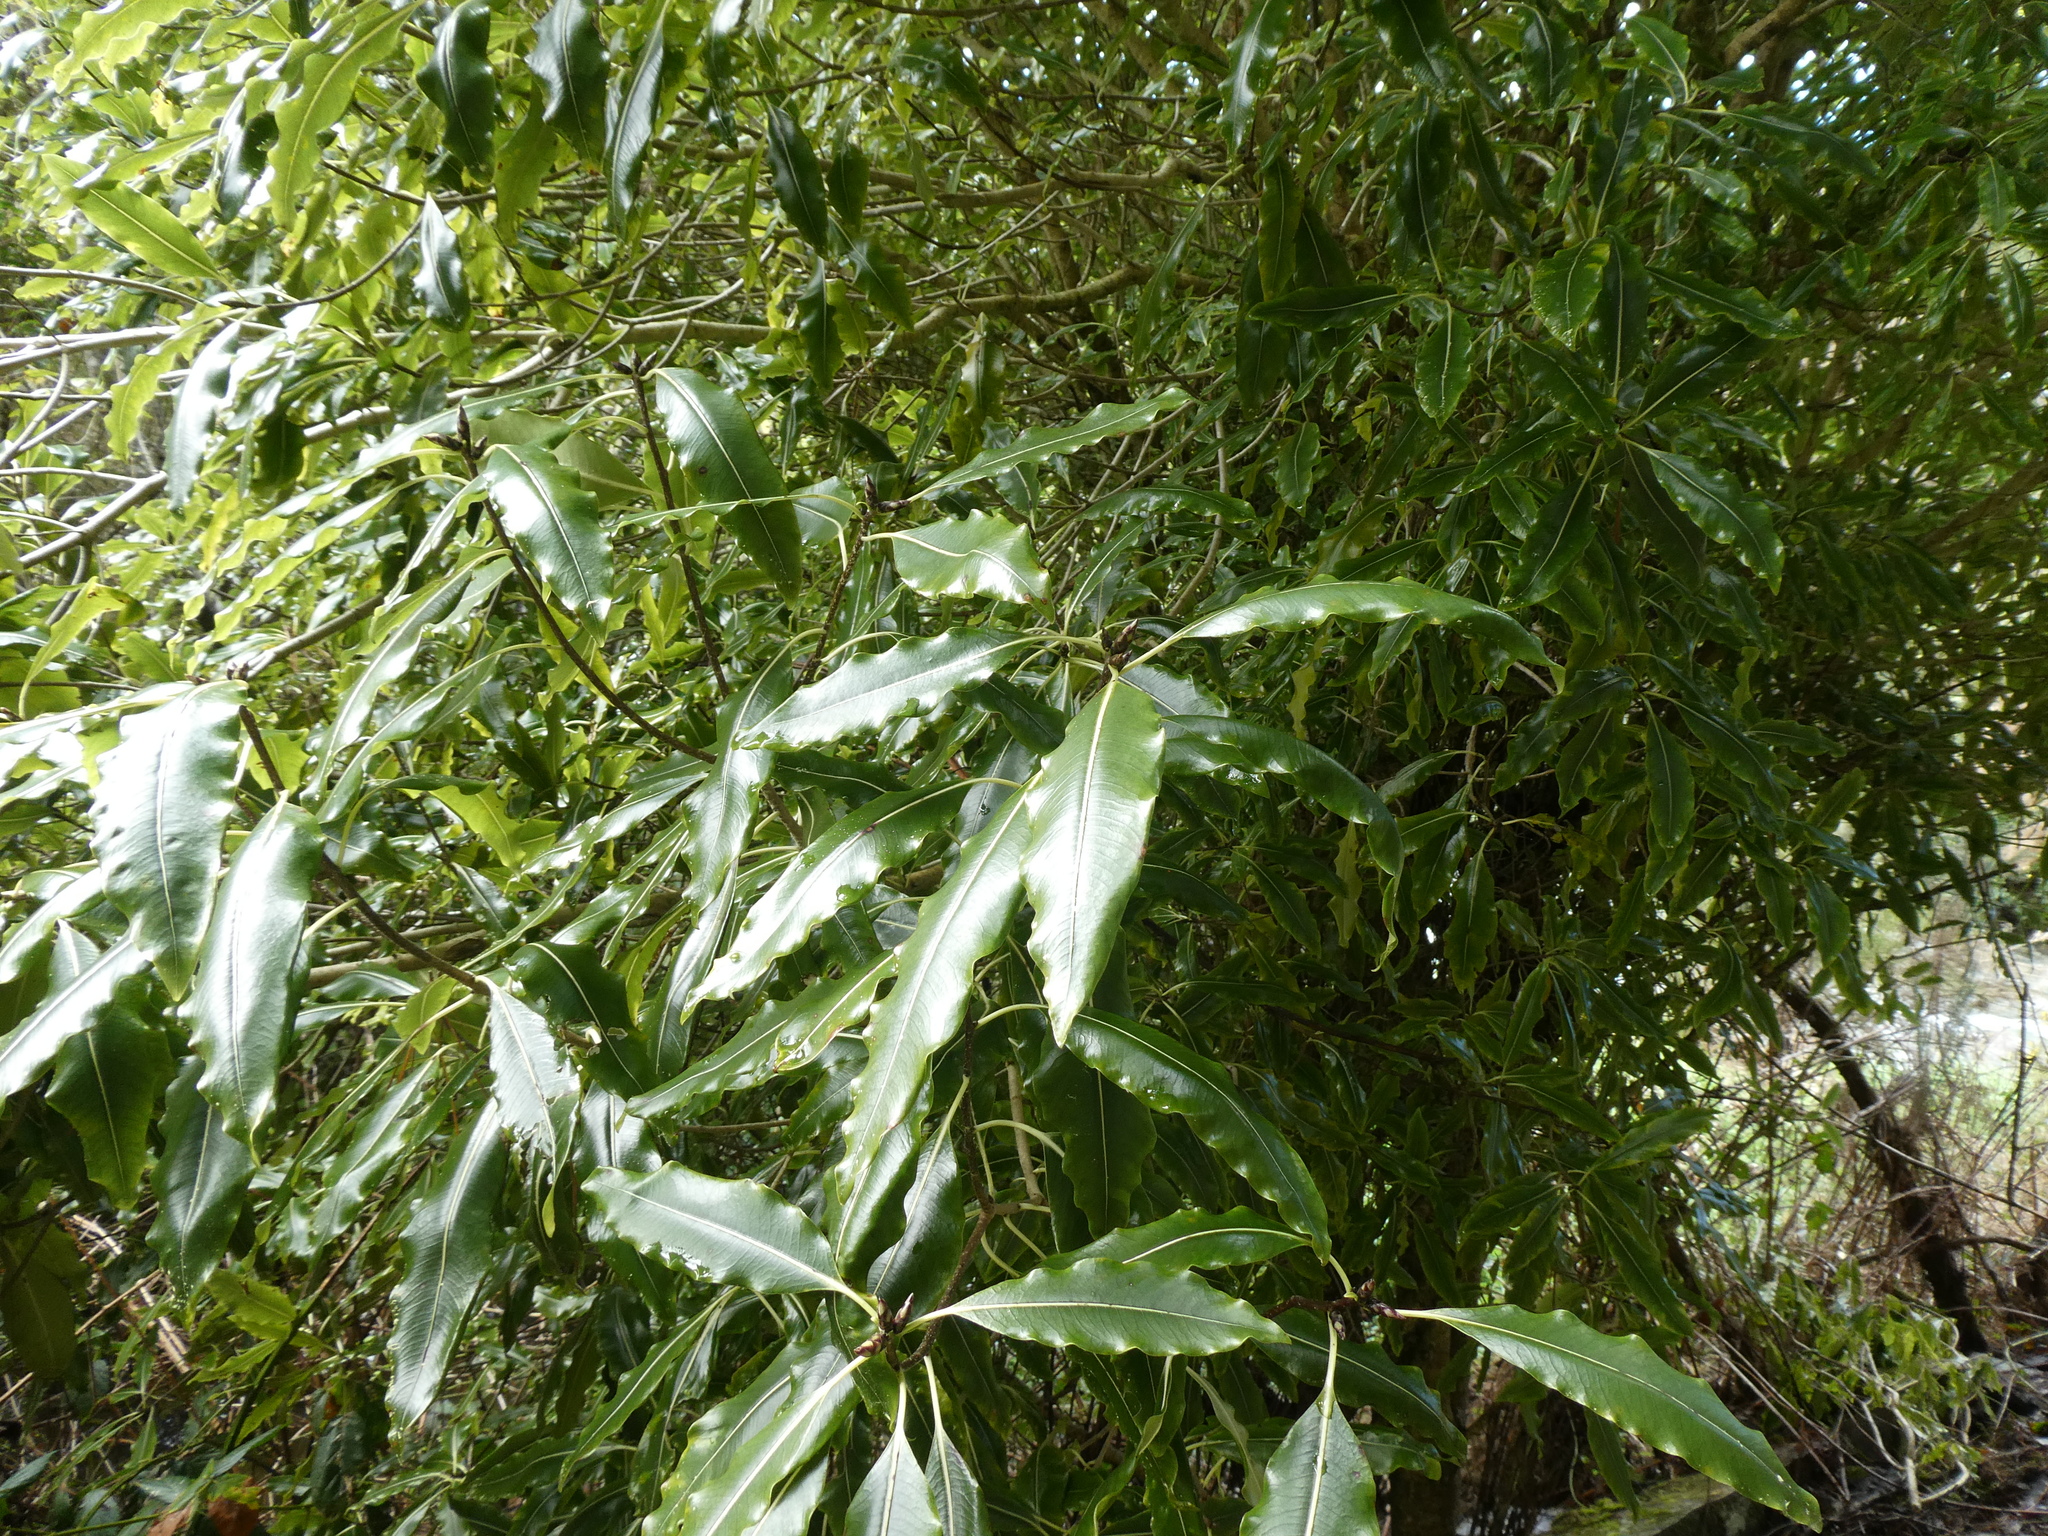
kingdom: Plantae
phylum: Tracheophyta
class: Magnoliopsida
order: Apiales
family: Pittosporaceae
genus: Pittosporum
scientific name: Pittosporum eugenioides
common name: Lemonwood
